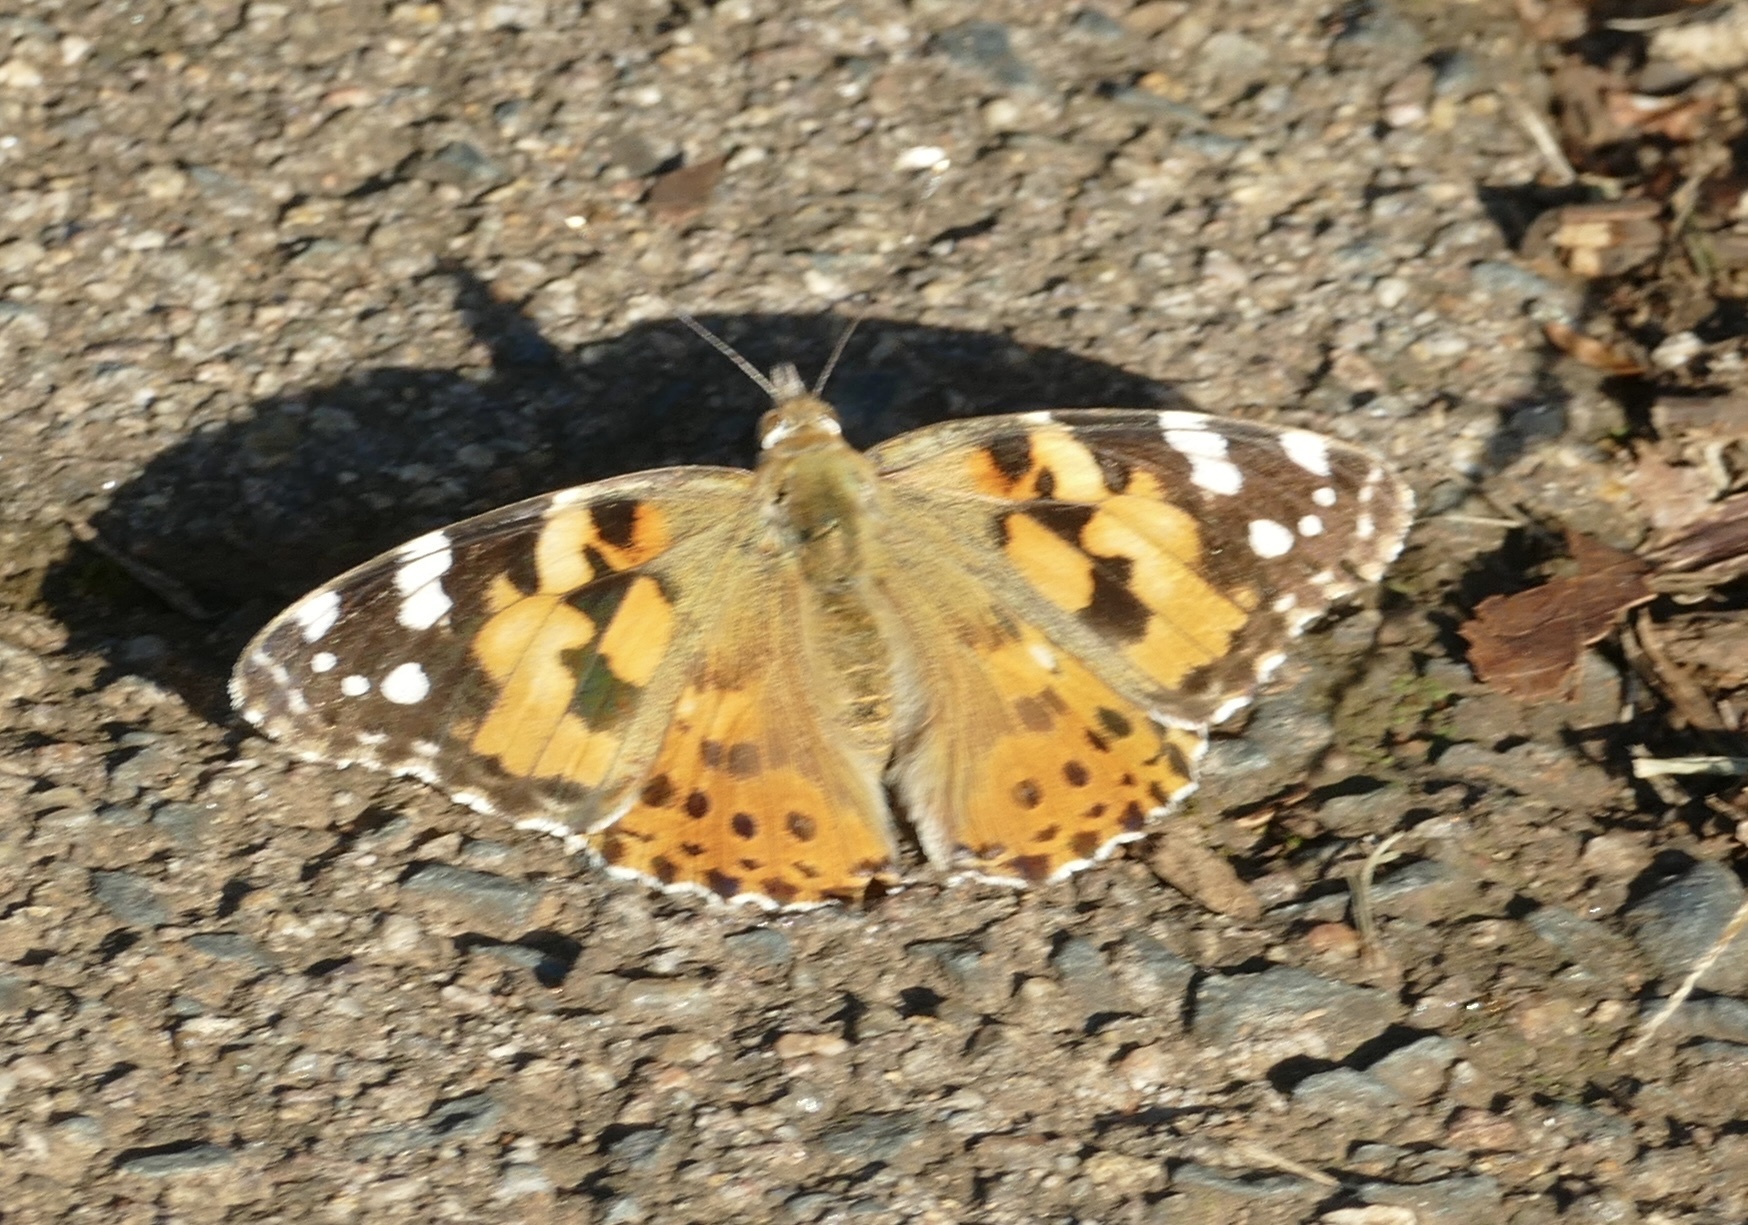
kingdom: Animalia
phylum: Arthropoda
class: Insecta
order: Lepidoptera
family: Nymphalidae
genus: Vanessa
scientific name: Vanessa cardui
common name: Painted lady
